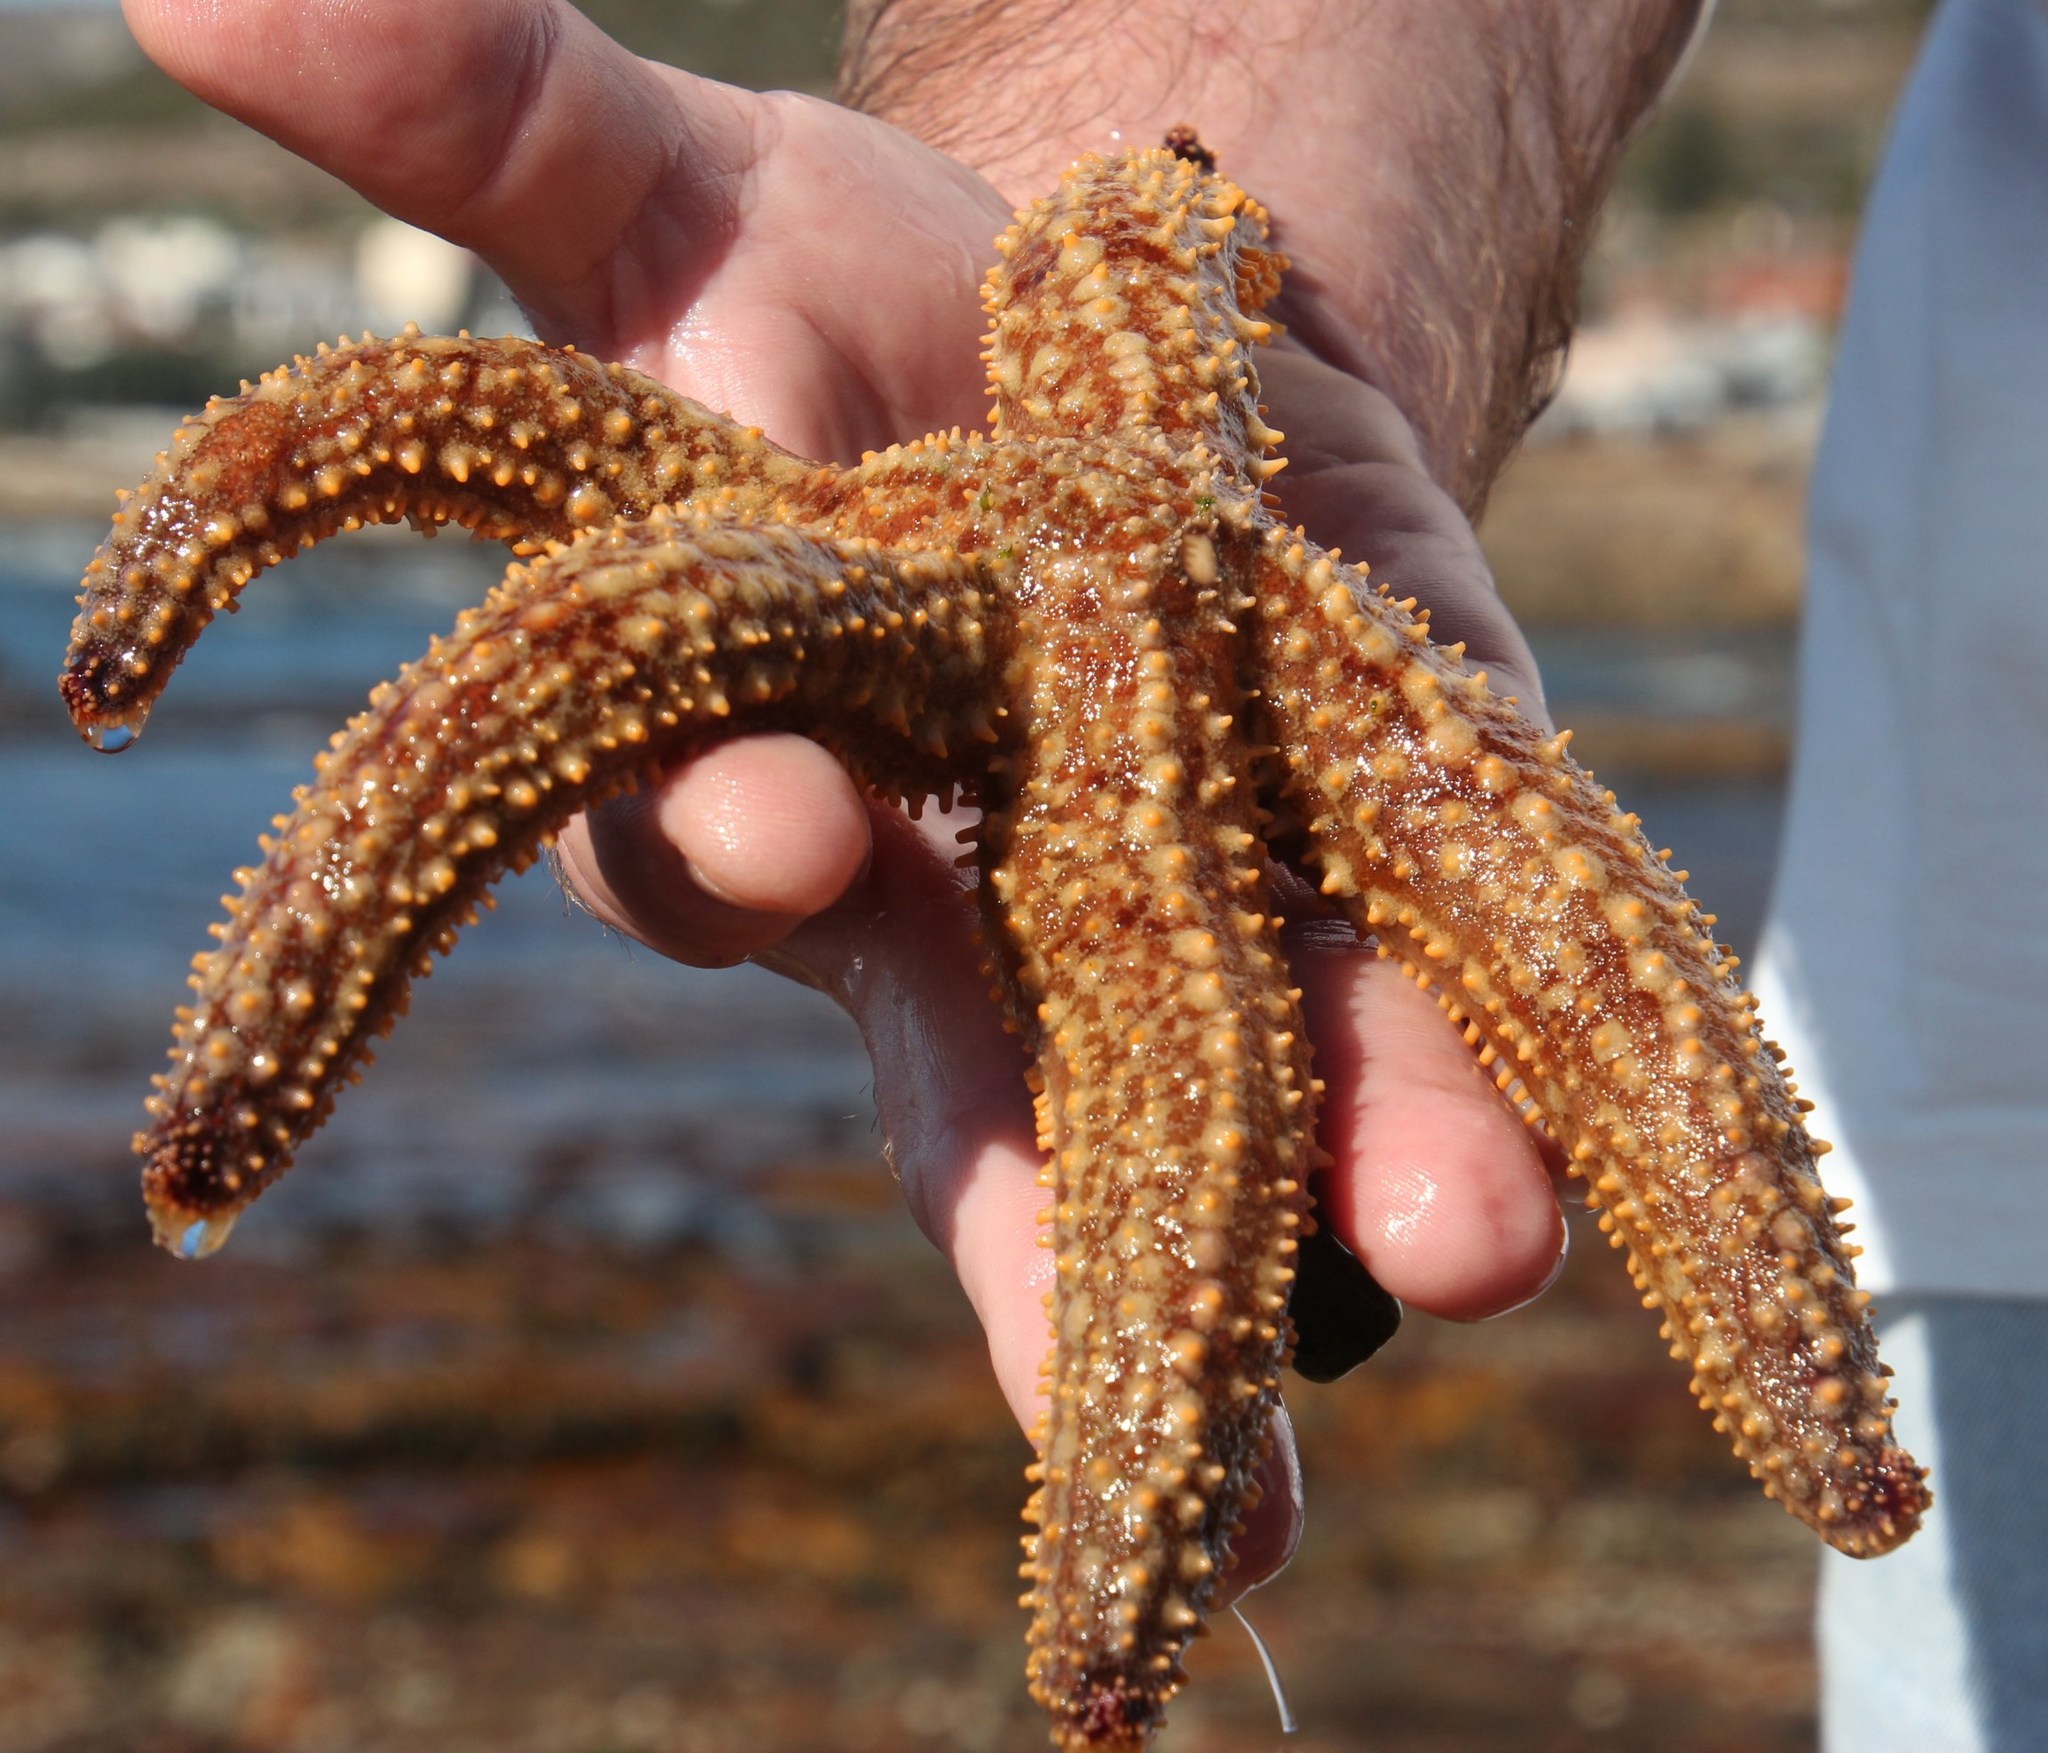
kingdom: Animalia
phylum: Echinodermata
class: Asteroidea
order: Forcipulatida
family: Asteriidae
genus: Marthasterias
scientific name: Marthasterias africana
